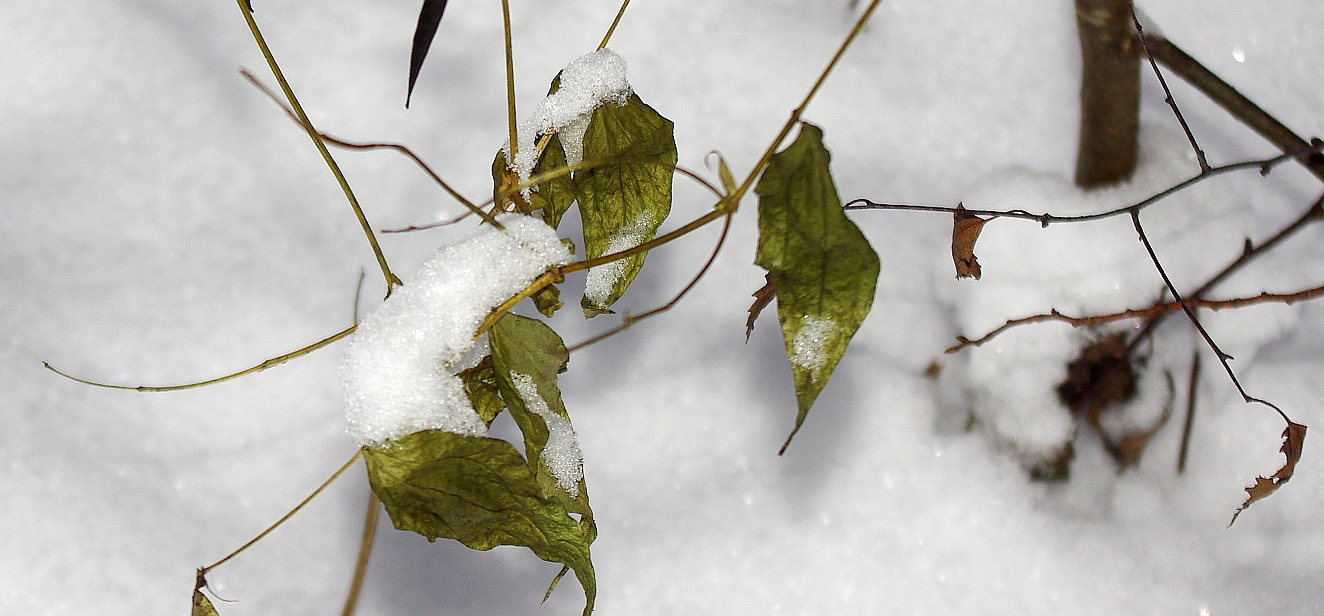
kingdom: Plantae
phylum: Tracheophyta
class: Magnoliopsida
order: Fabales
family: Fabaceae
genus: Lathyrus
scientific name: Lathyrus vernus
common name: Spring pea
